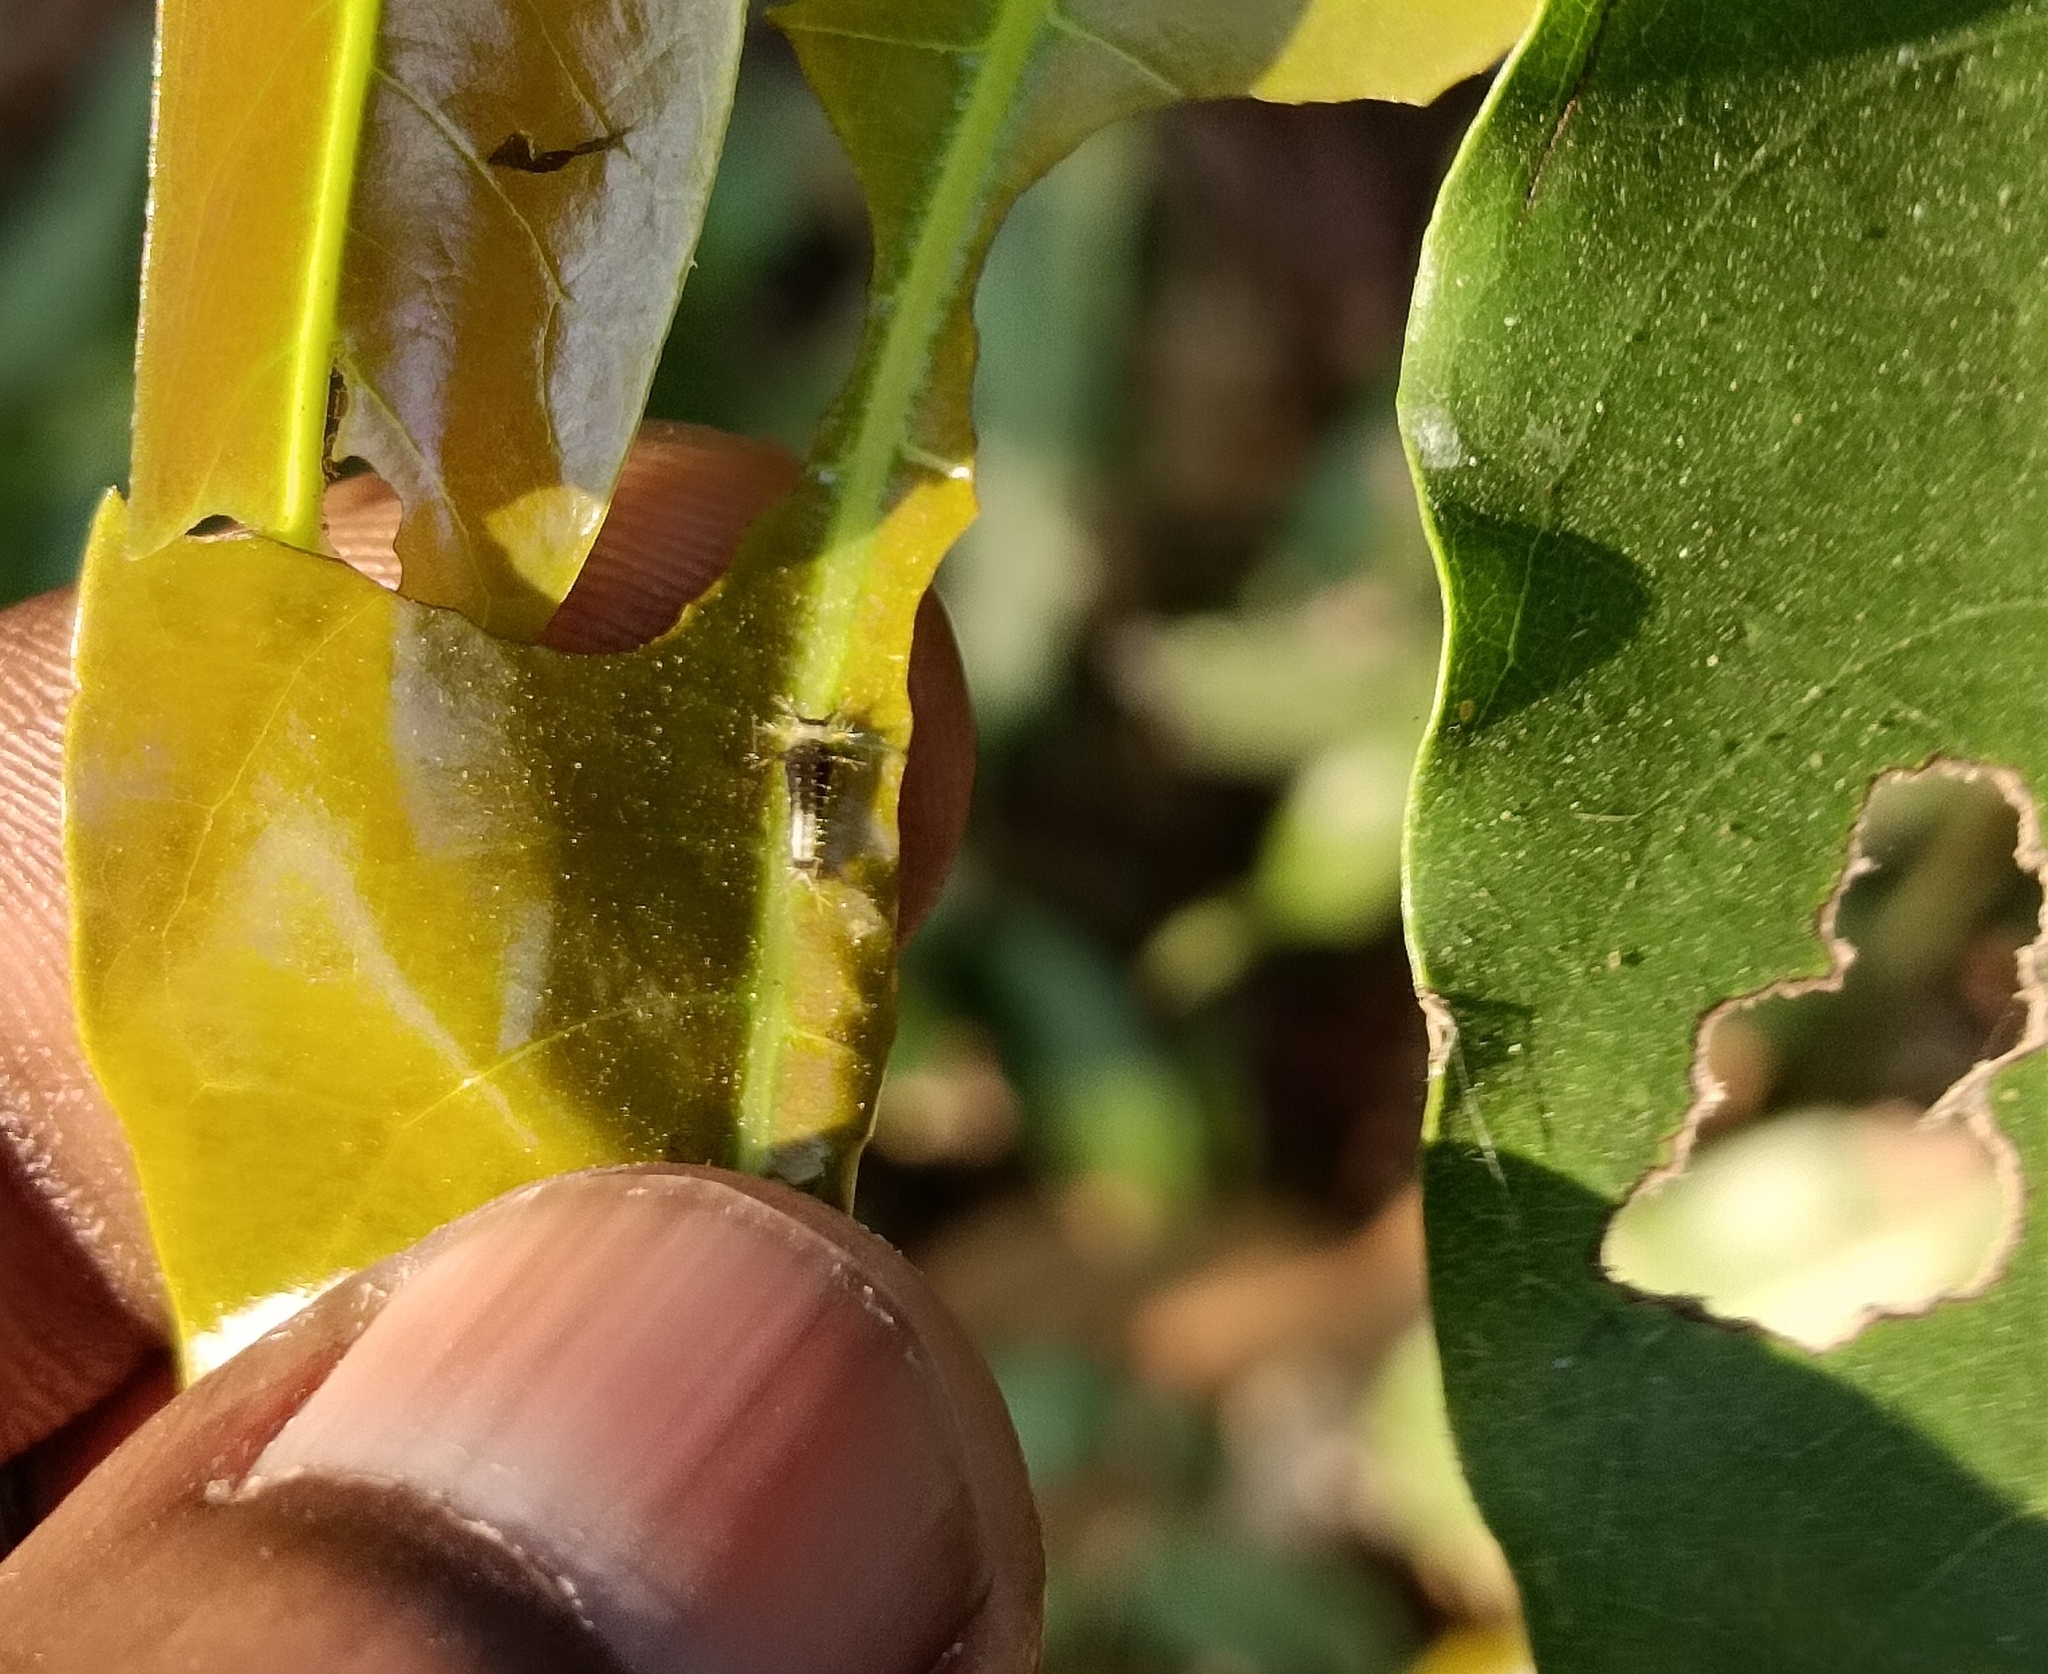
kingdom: Animalia
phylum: Arthropoda
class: Insecta
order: Lepidoptera
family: Papilionidae
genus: Graphium
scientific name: Graphium agamemnon
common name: Tailed jay
